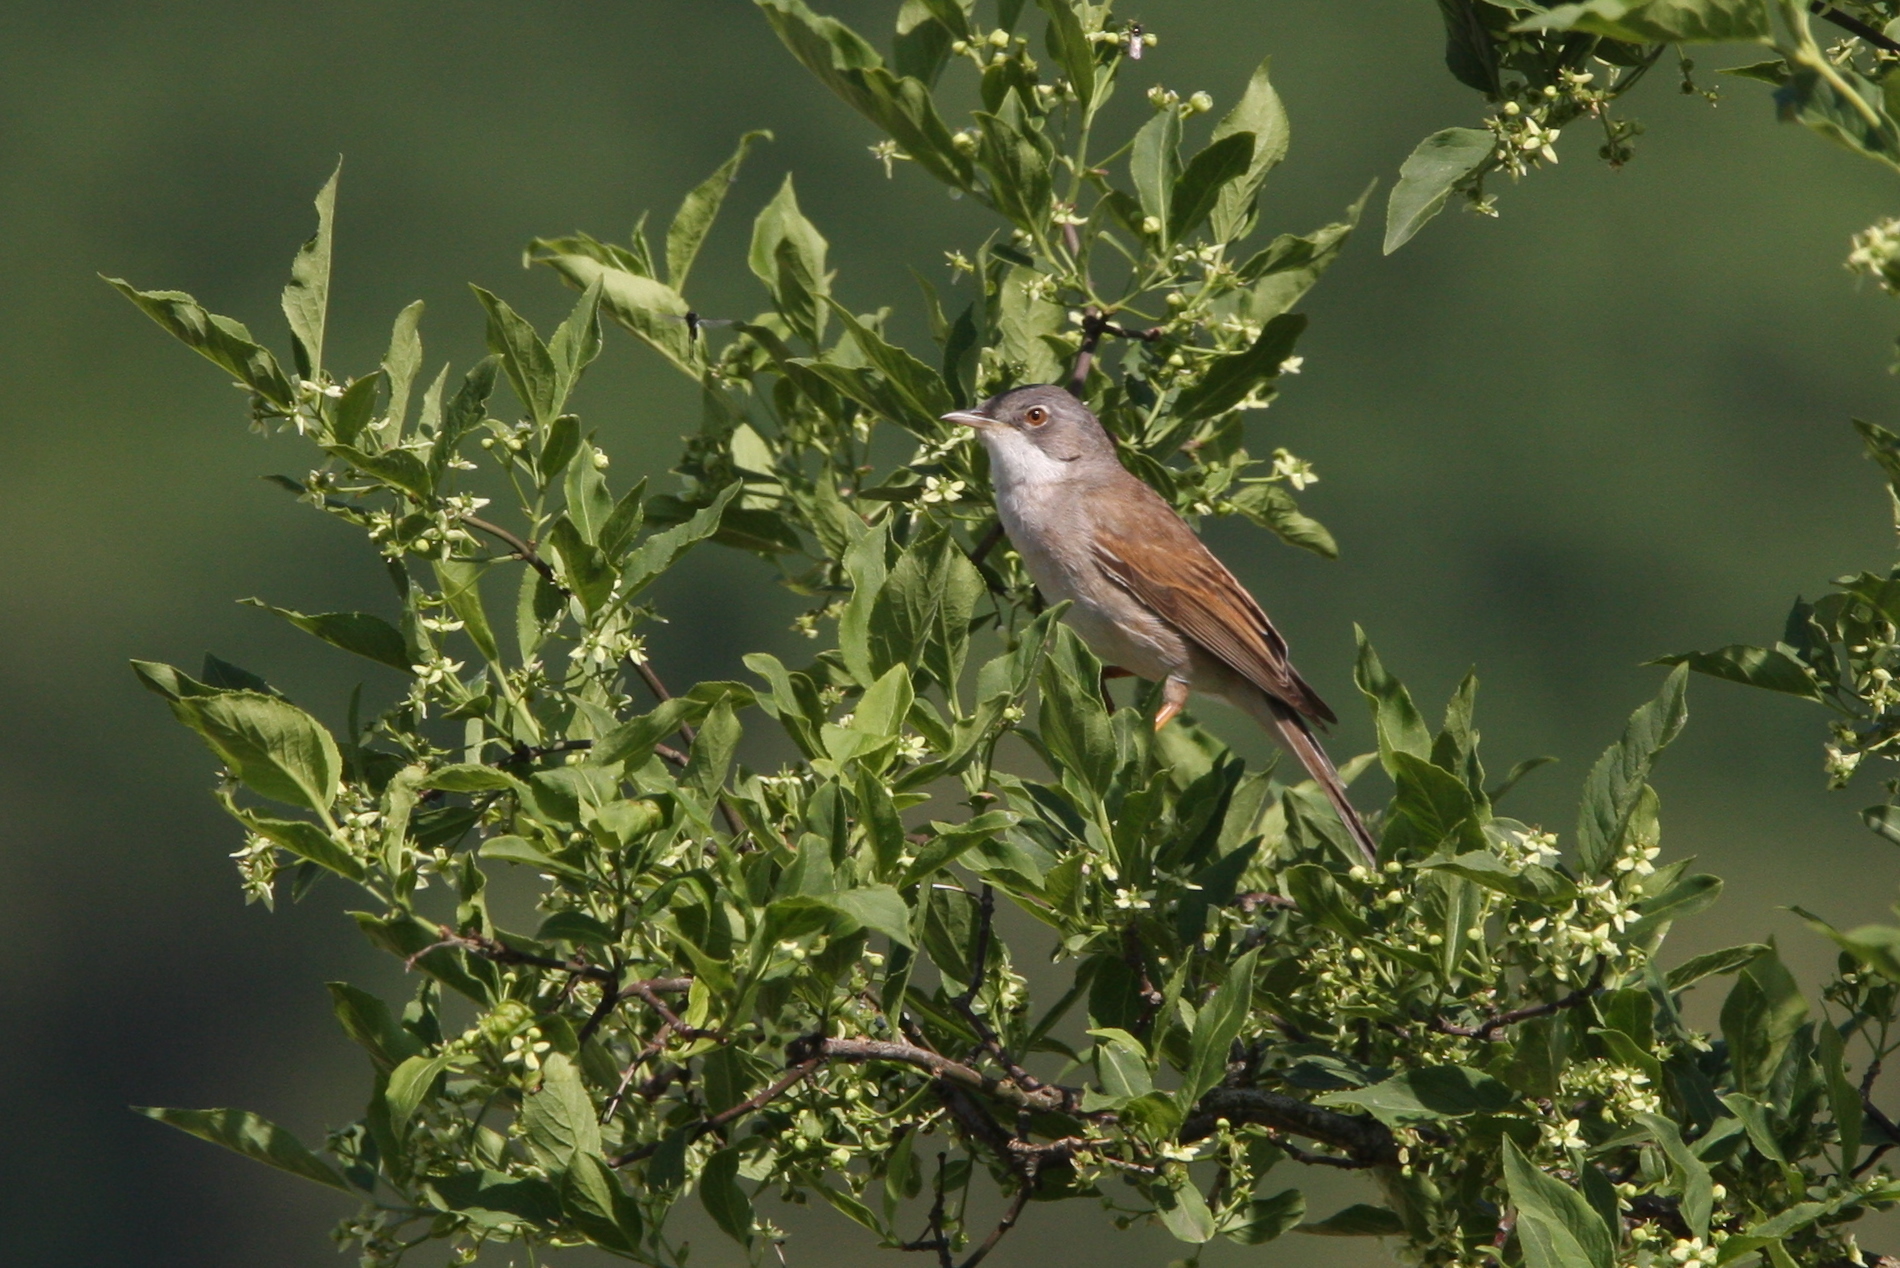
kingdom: Animalia
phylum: Chordata
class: Aves
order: Passeriformes
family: Sylviidae
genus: Sylvia
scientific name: Sylvia communis
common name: Common whitethroat
